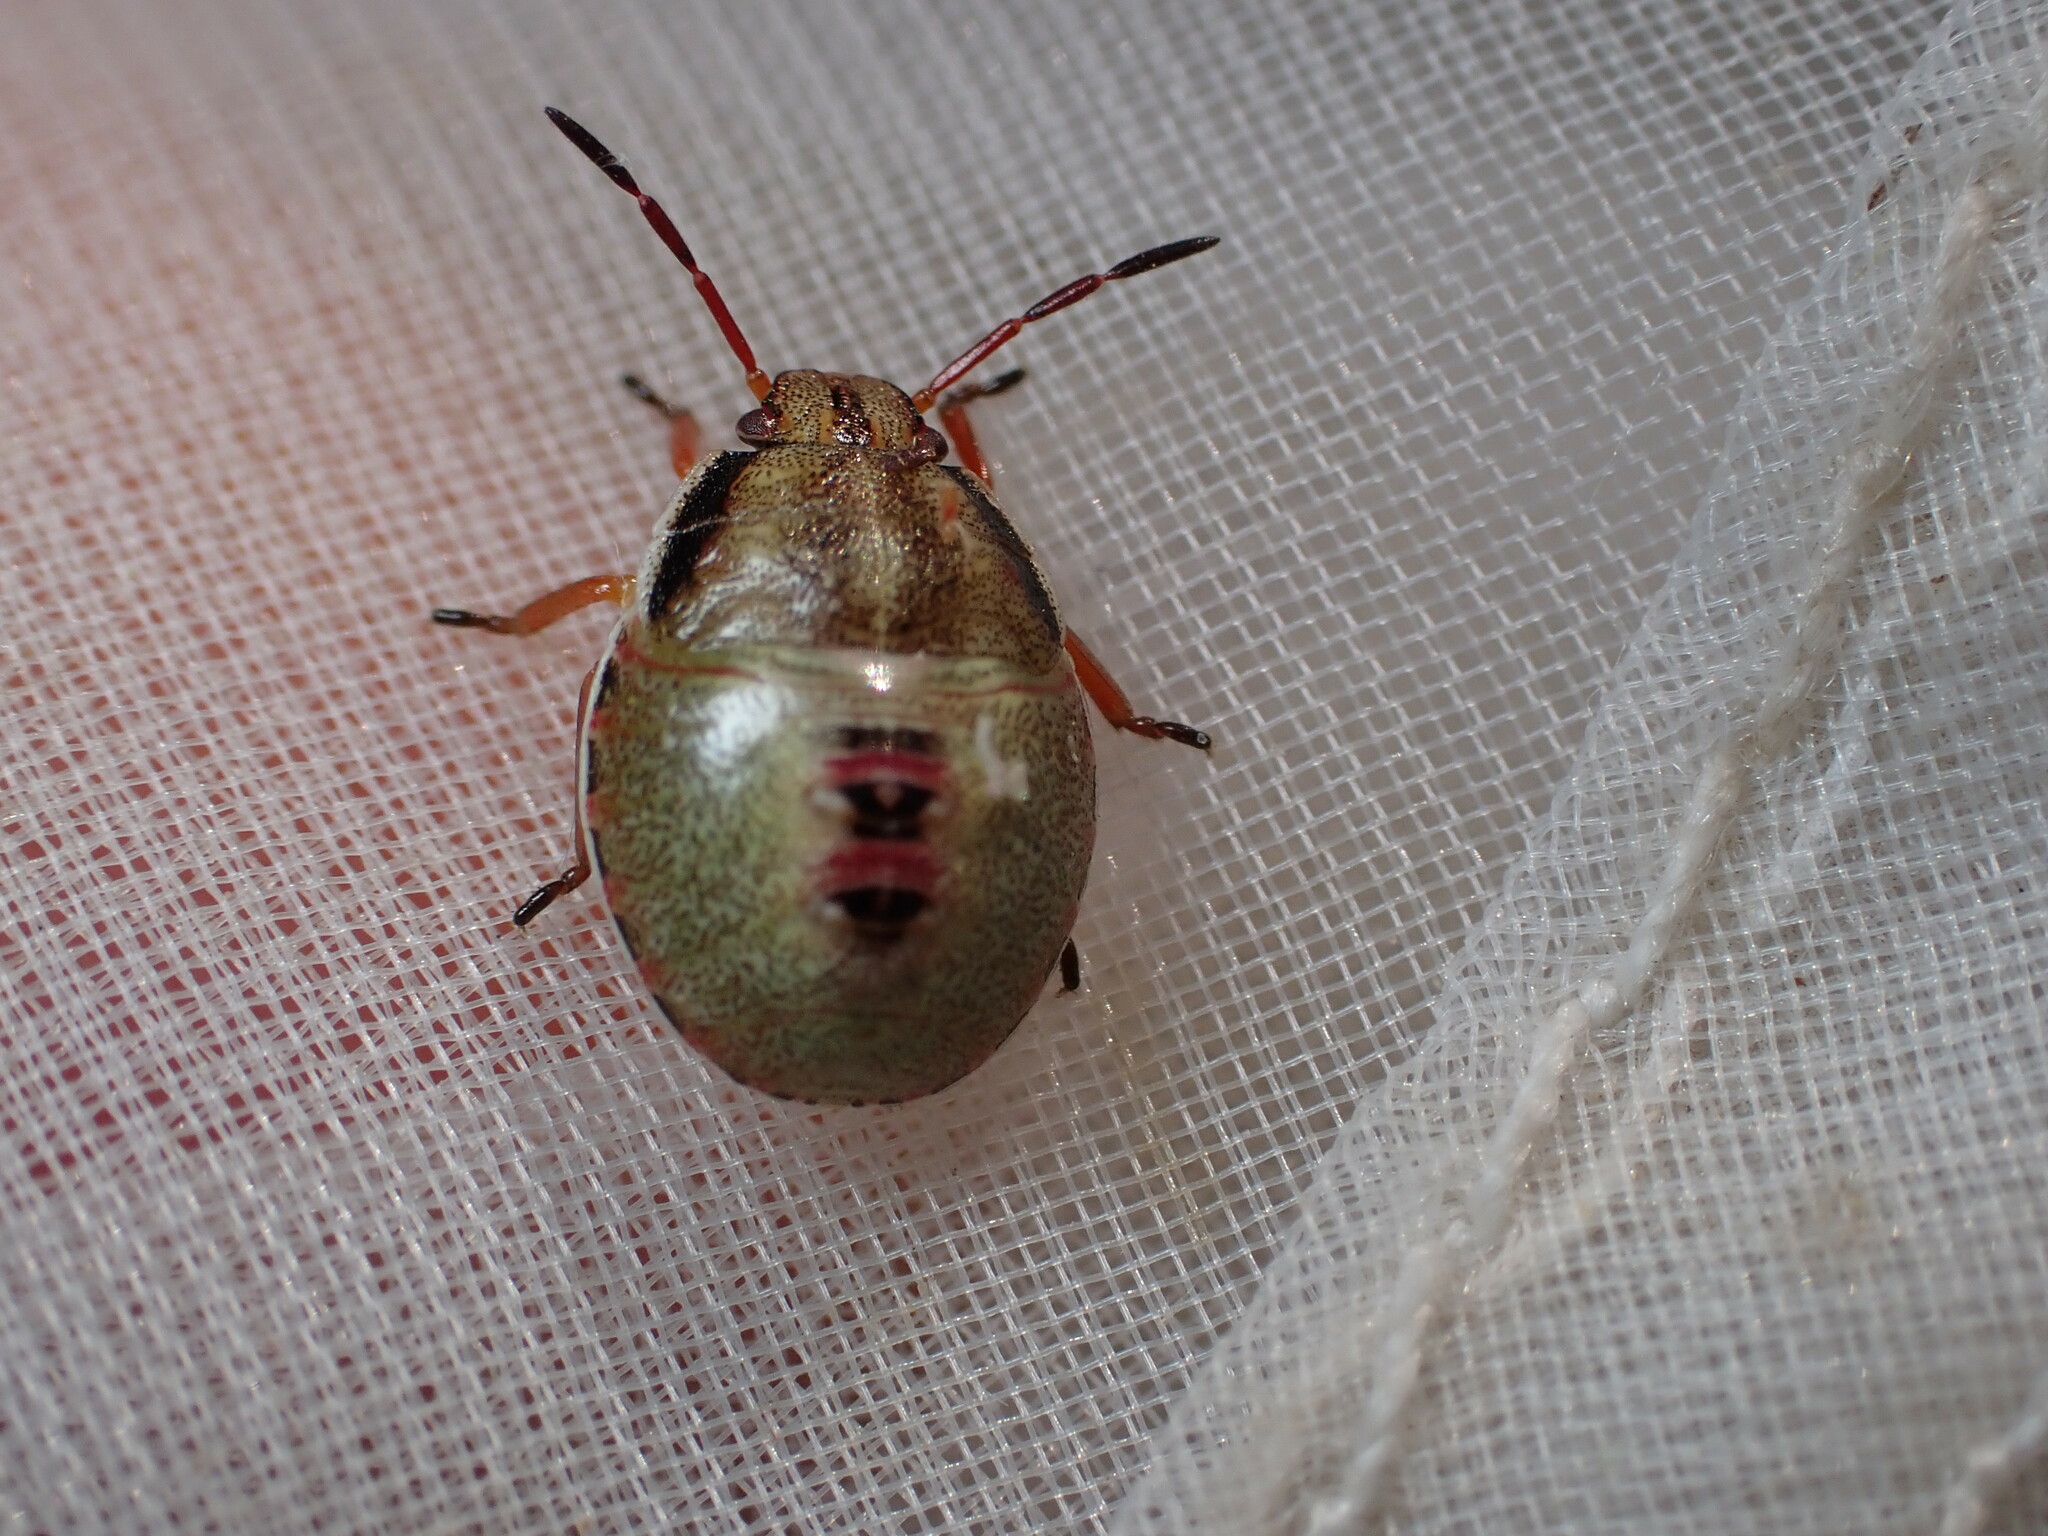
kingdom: Animalia
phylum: Arthropoda
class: Insecta
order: Hemiptera
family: Pentatomidae
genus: Piezodorus
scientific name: Piezodorus lituratus
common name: Stink bug
